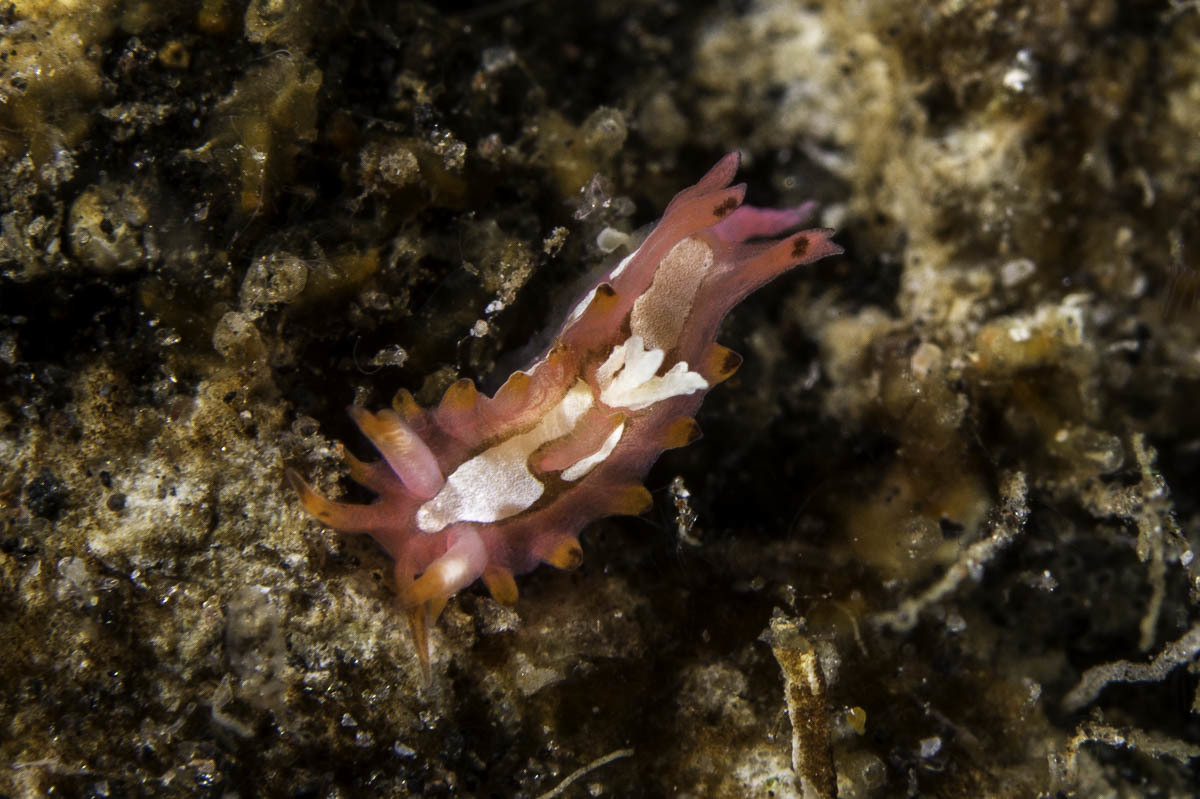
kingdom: Animalia
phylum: Mollusca
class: Gastropoda
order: Nudibranchia
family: Goniodorididae
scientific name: Goniodorididae
